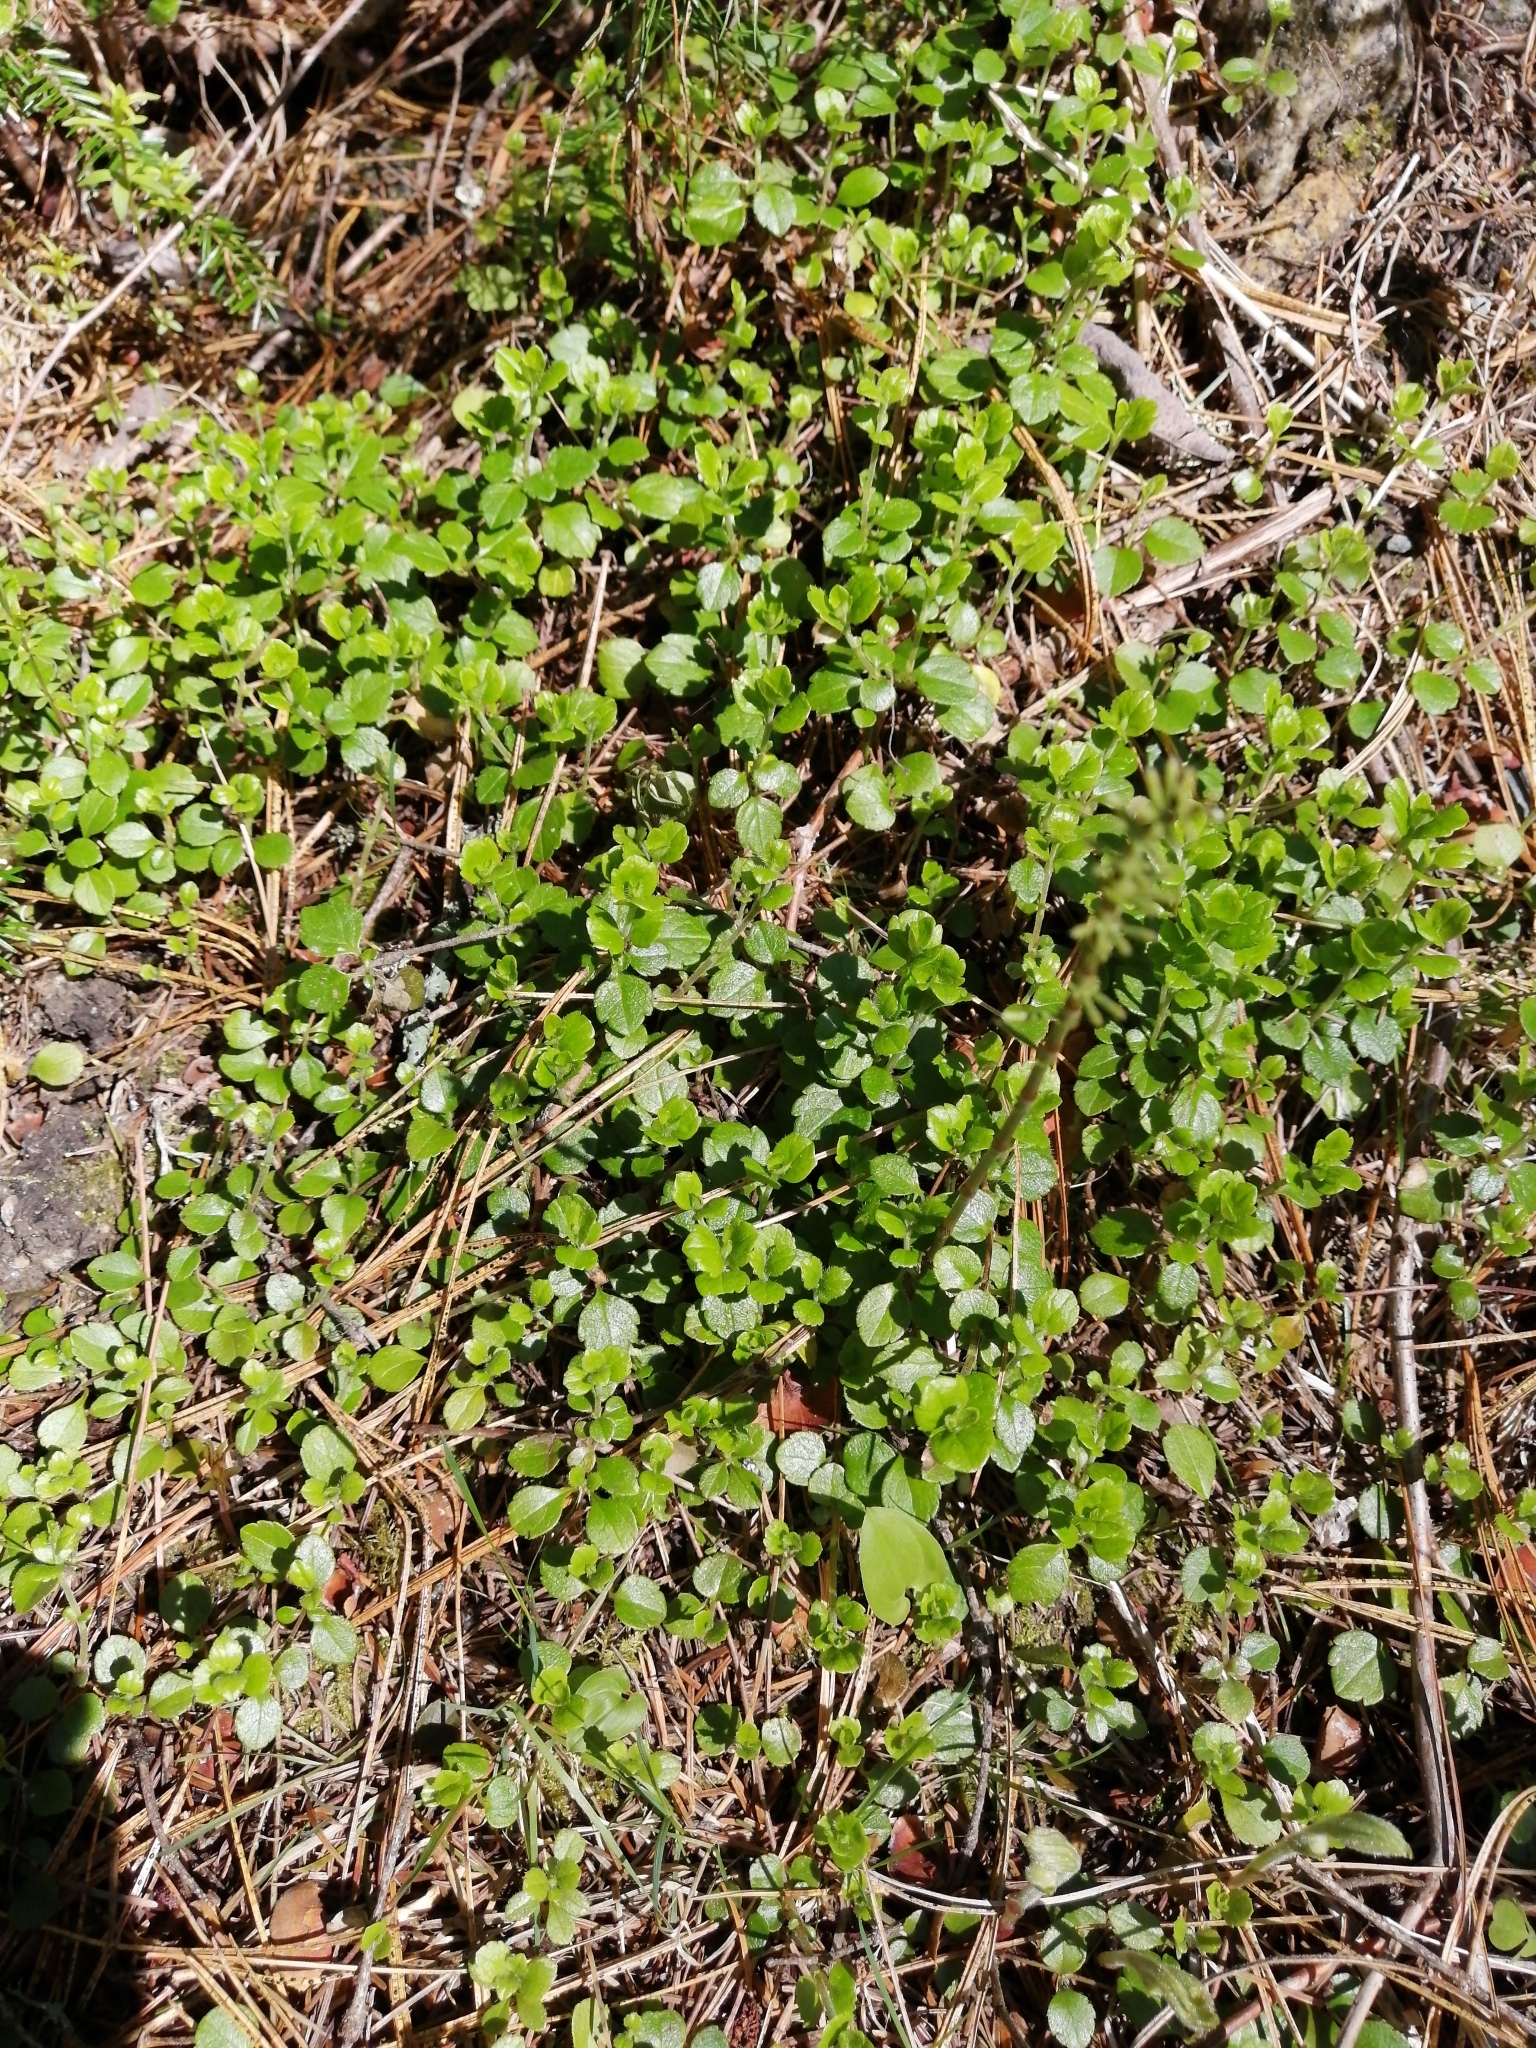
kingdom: Plantae
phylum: Tracheophyta
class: Magnoliopsida
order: Dipsacales
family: Caprifoliaceae
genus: Linnaea
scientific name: Linnaea borealis
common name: Twinflower
